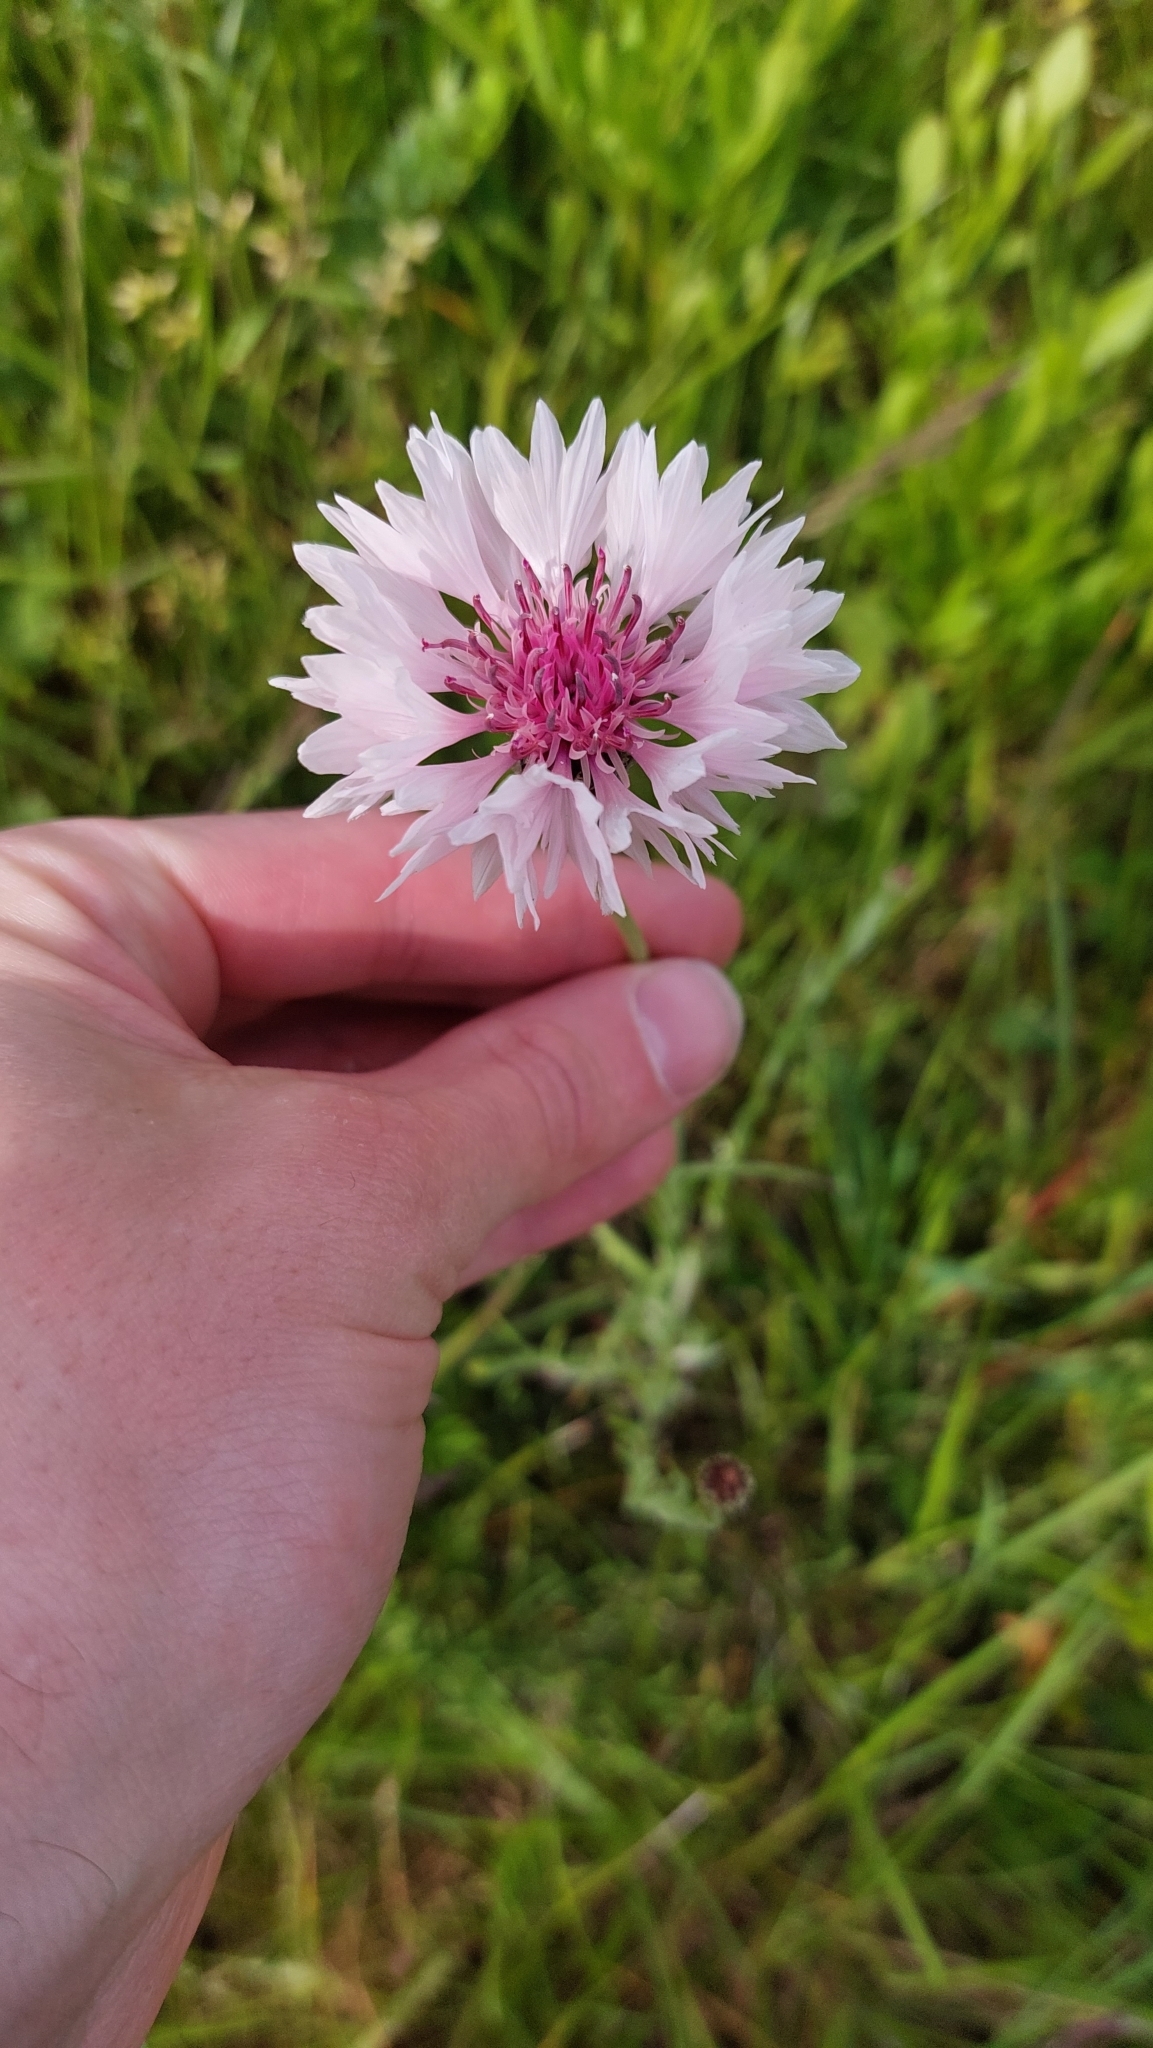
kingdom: Plantae
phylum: Tracheophyta
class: Magnoliopsida
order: Asterales
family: Asteraceae
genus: Centaurea
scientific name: Centaurea cyanus
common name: Cornflower
